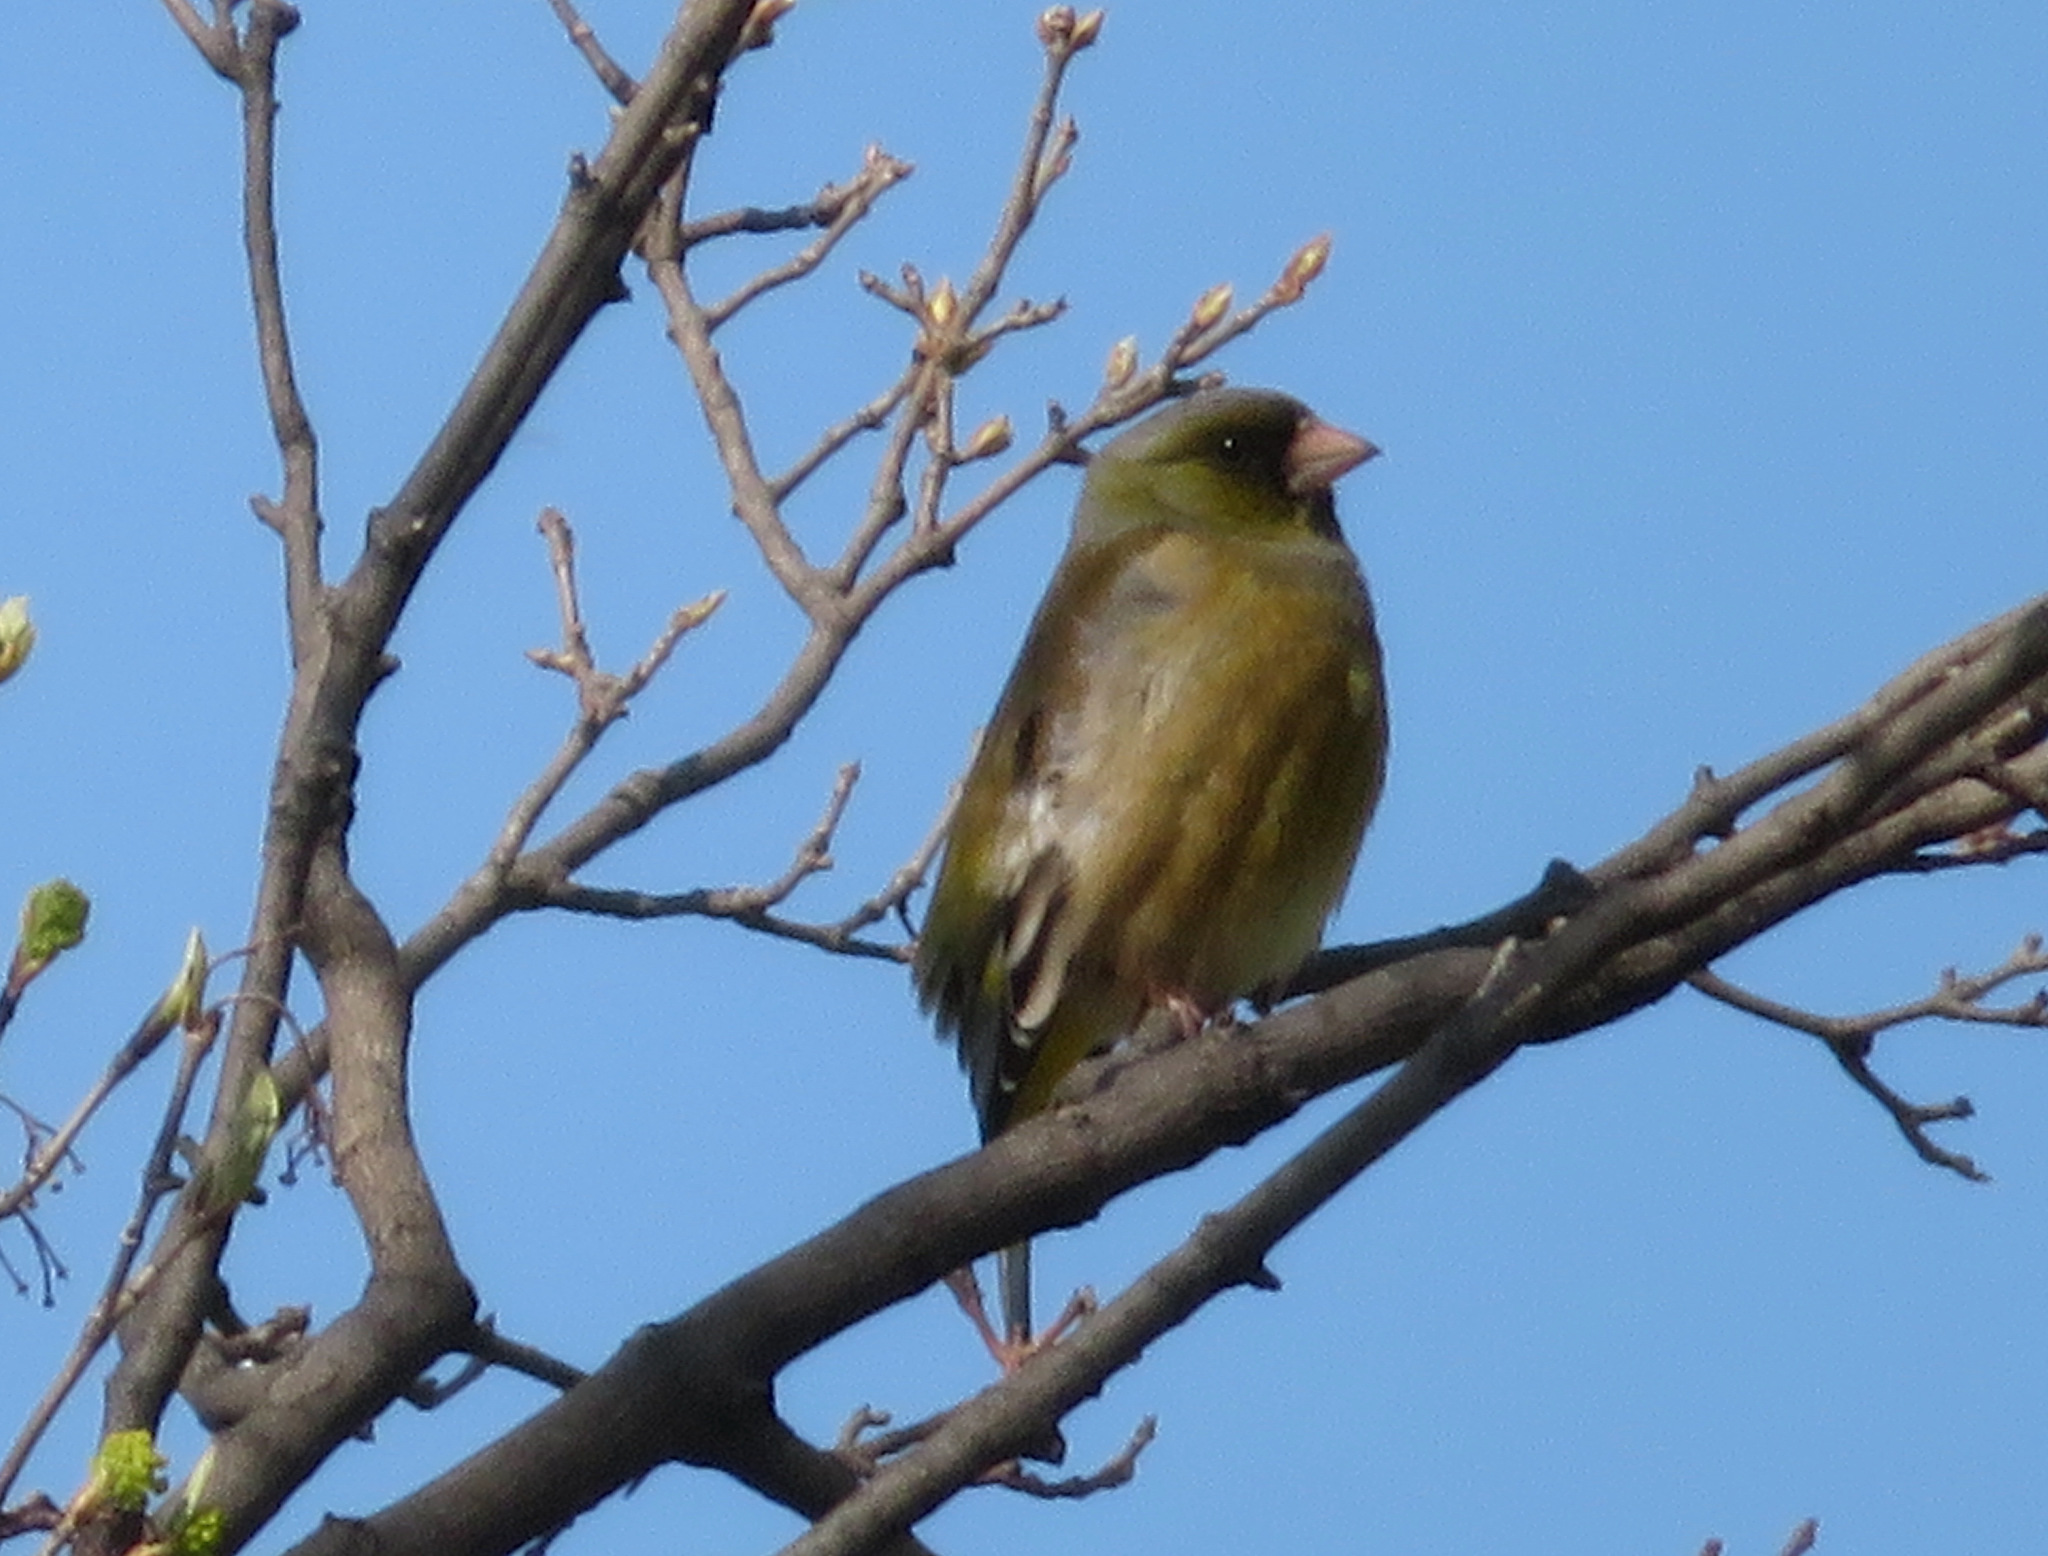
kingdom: Plantae
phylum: Tracheophyta
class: Liliopsida
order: Poales
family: Poaceae
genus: Chloris
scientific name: Chloris sinica
